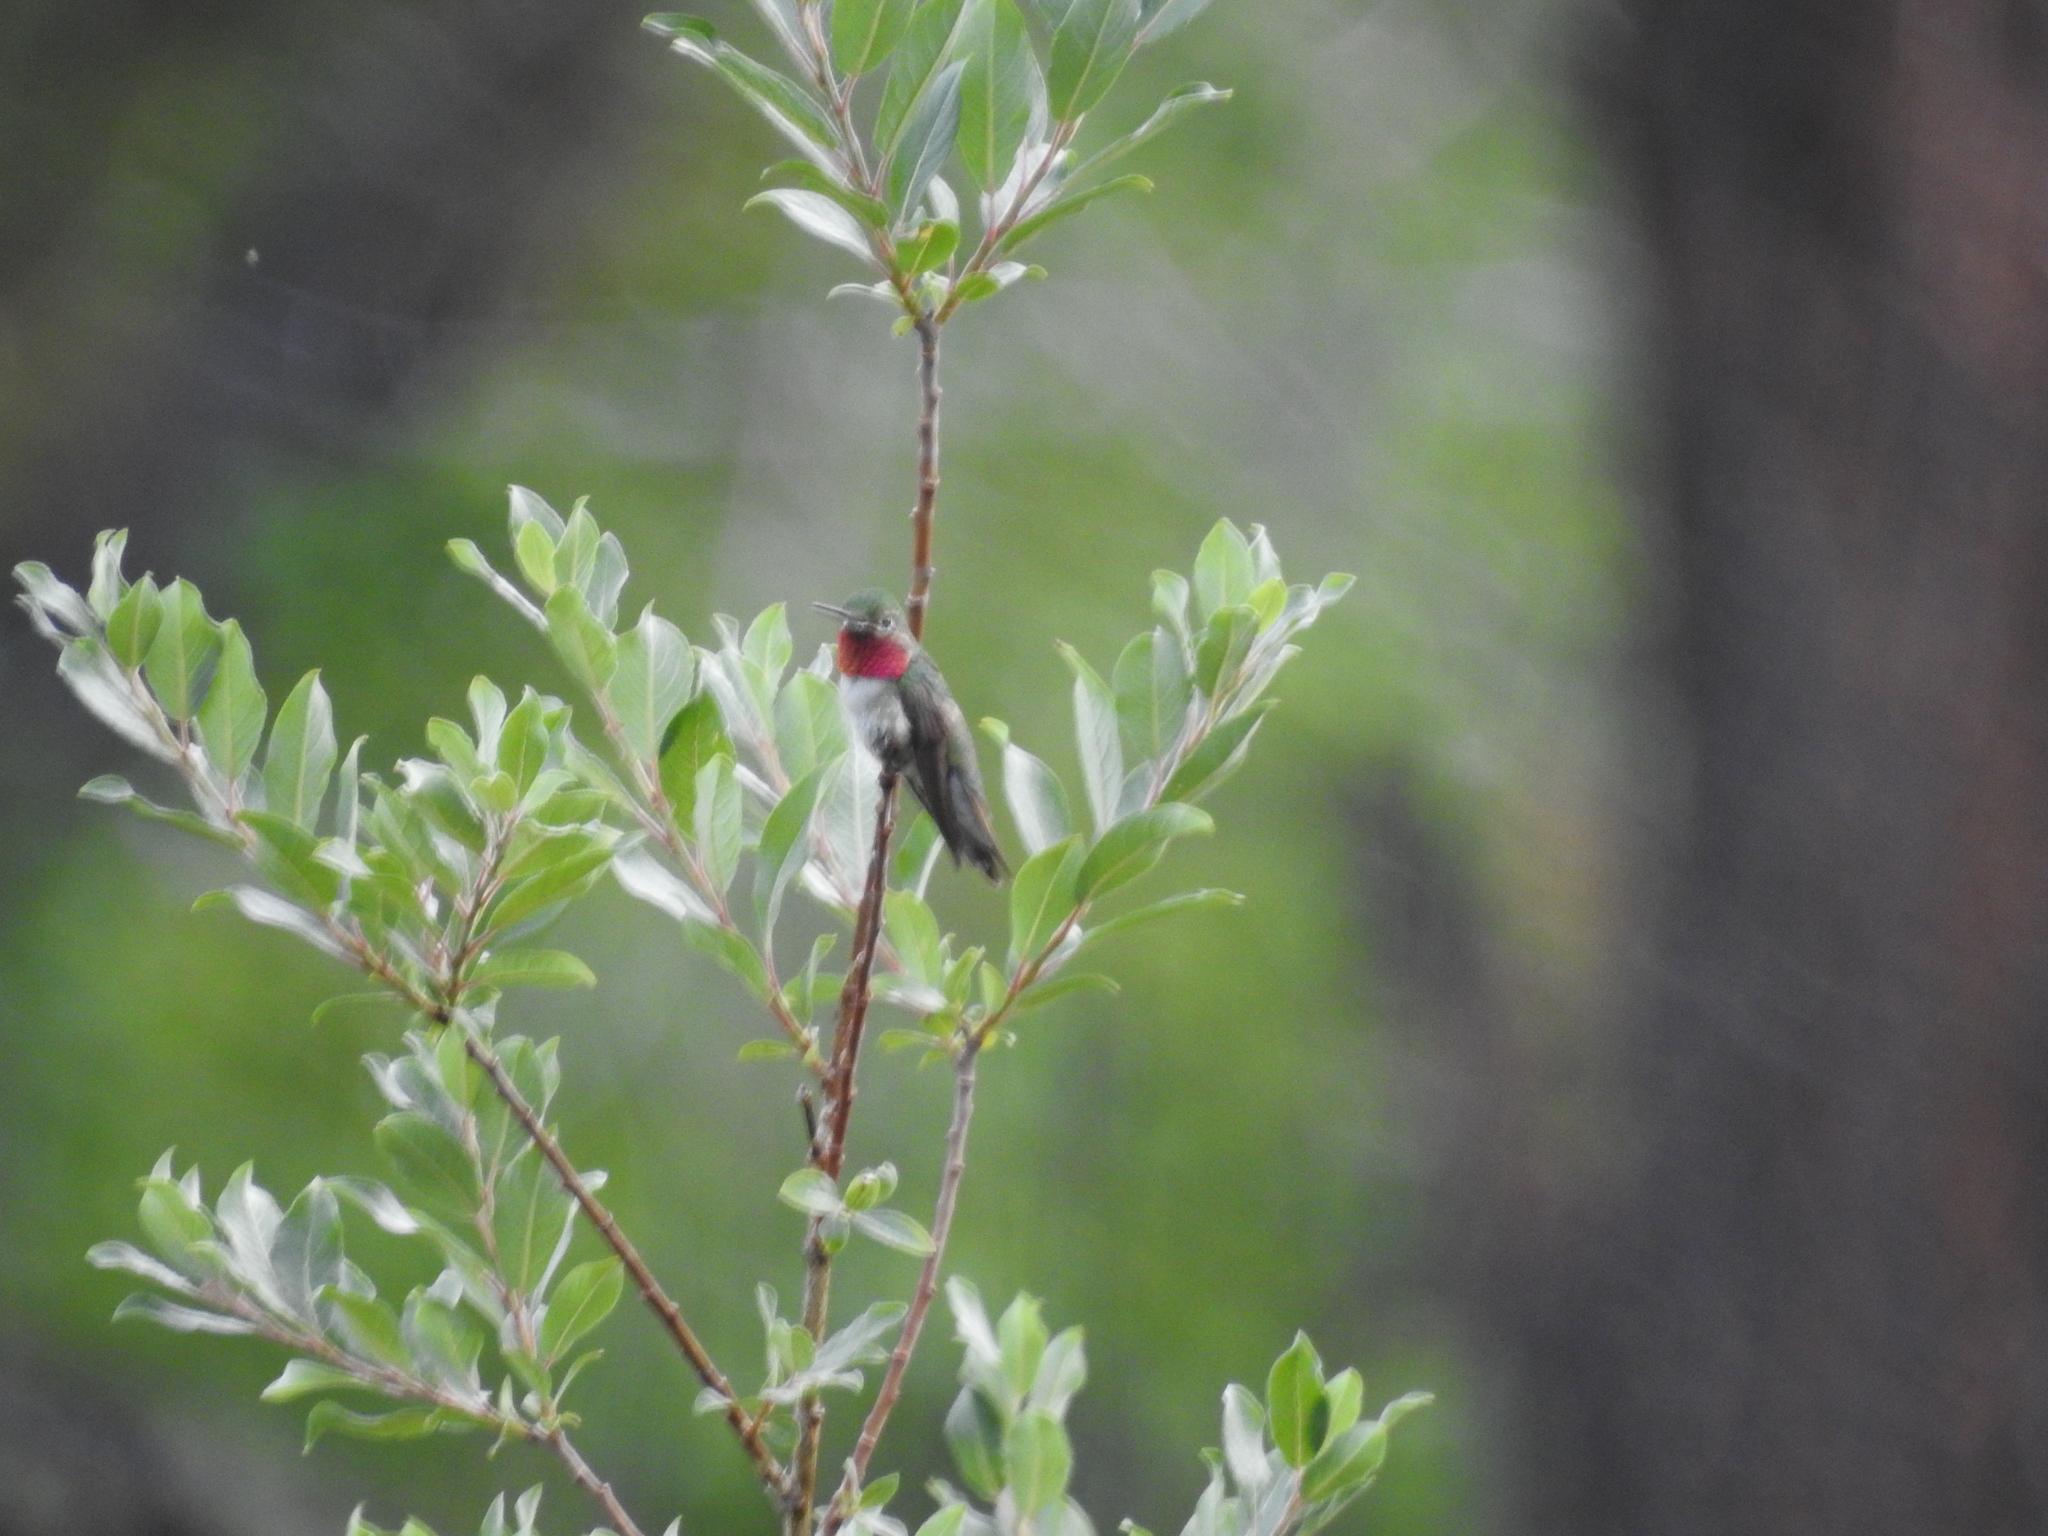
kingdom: Animalia
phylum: Chordata
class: Aves
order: Apodiformes
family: Trochilidae
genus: Selasphorus
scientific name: Selasphorus platycercus
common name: Broad-tailed hummingbird
